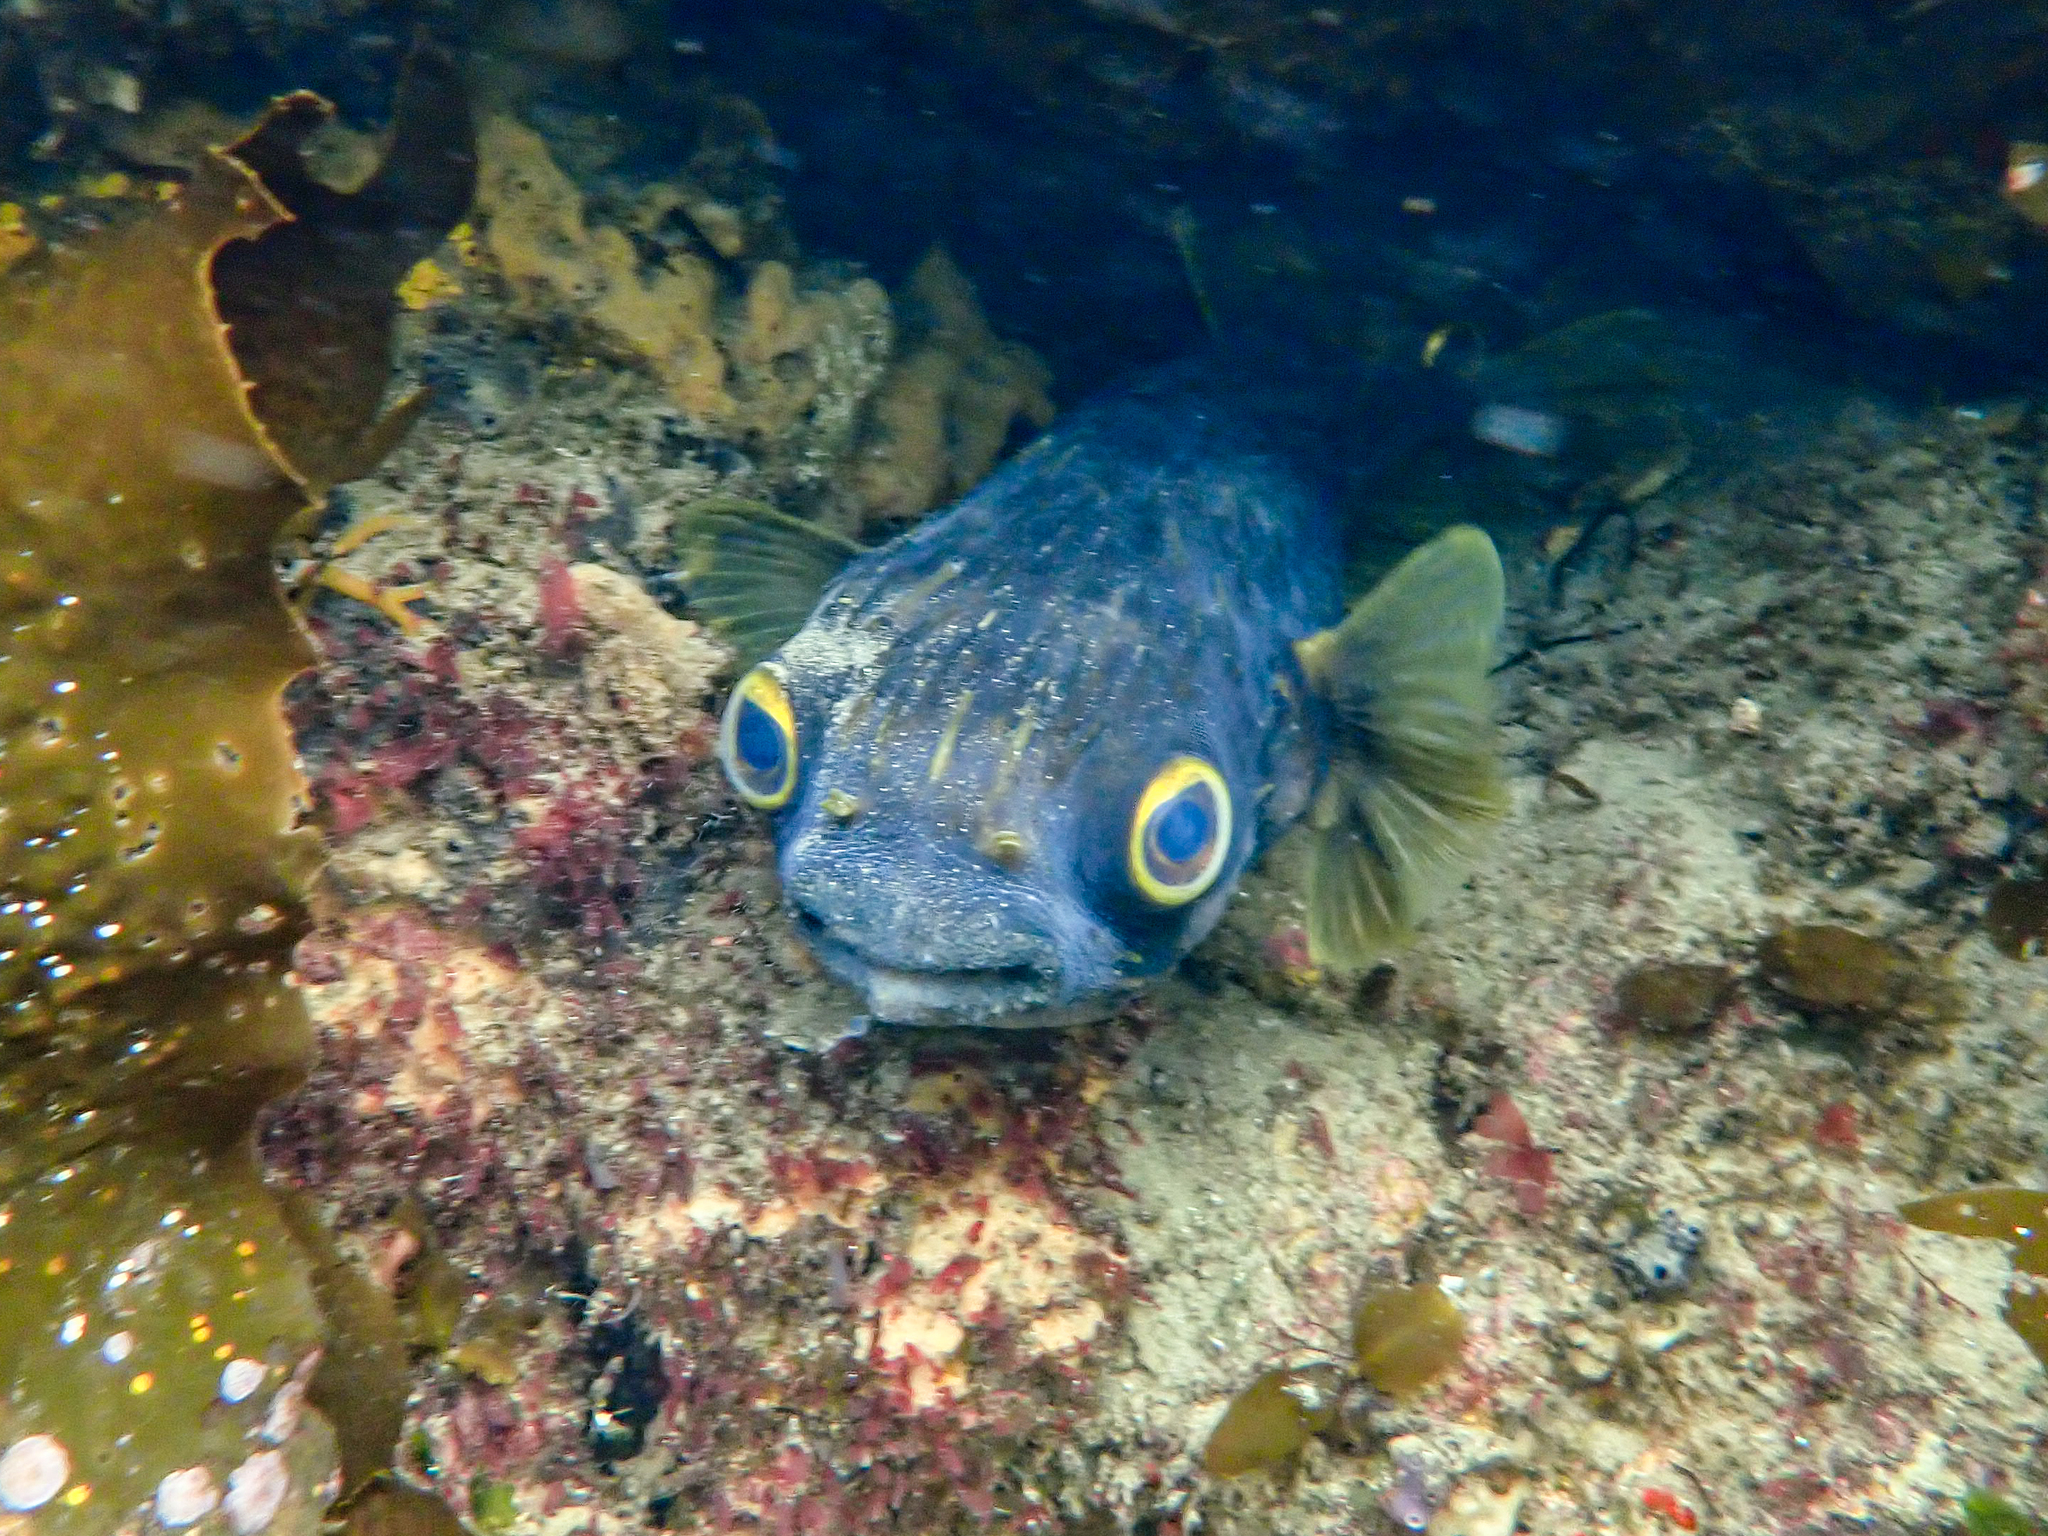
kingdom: Animalia
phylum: Chordata
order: Tetraodontiformes
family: Diodontidae
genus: Diodon
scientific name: Diodon nicthemerus
